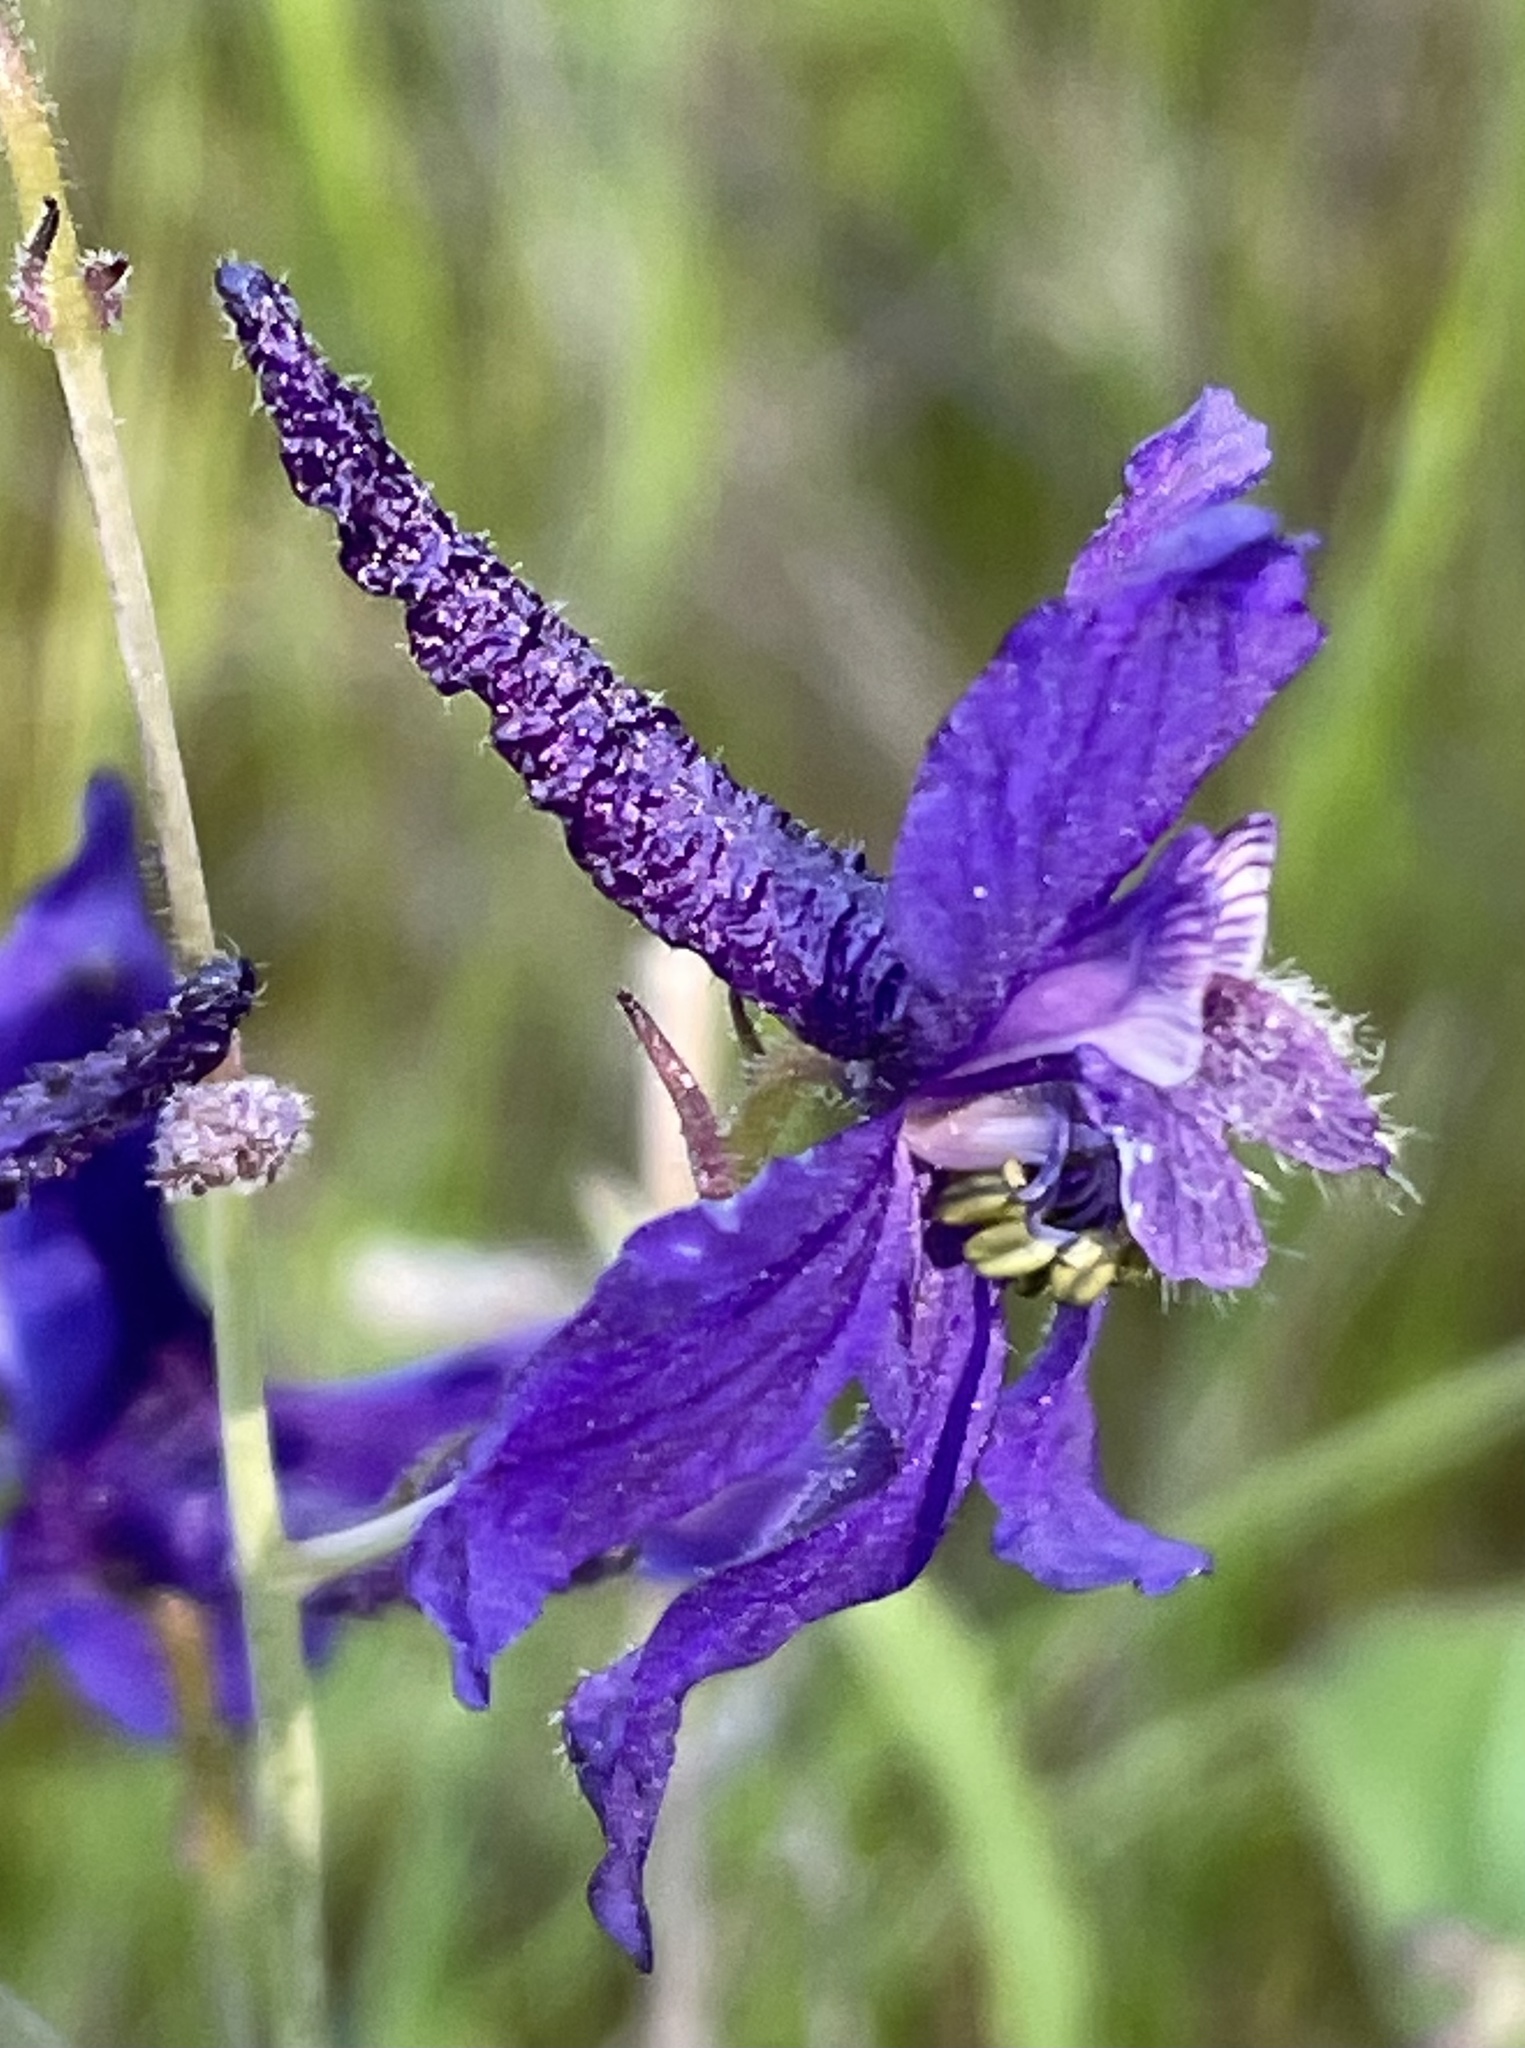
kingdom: Plantae
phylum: Tracheophyta
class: Magnoliopsida
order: Ranunculales
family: Ranunculaceae
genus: Delphinium
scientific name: Delphinium patens
